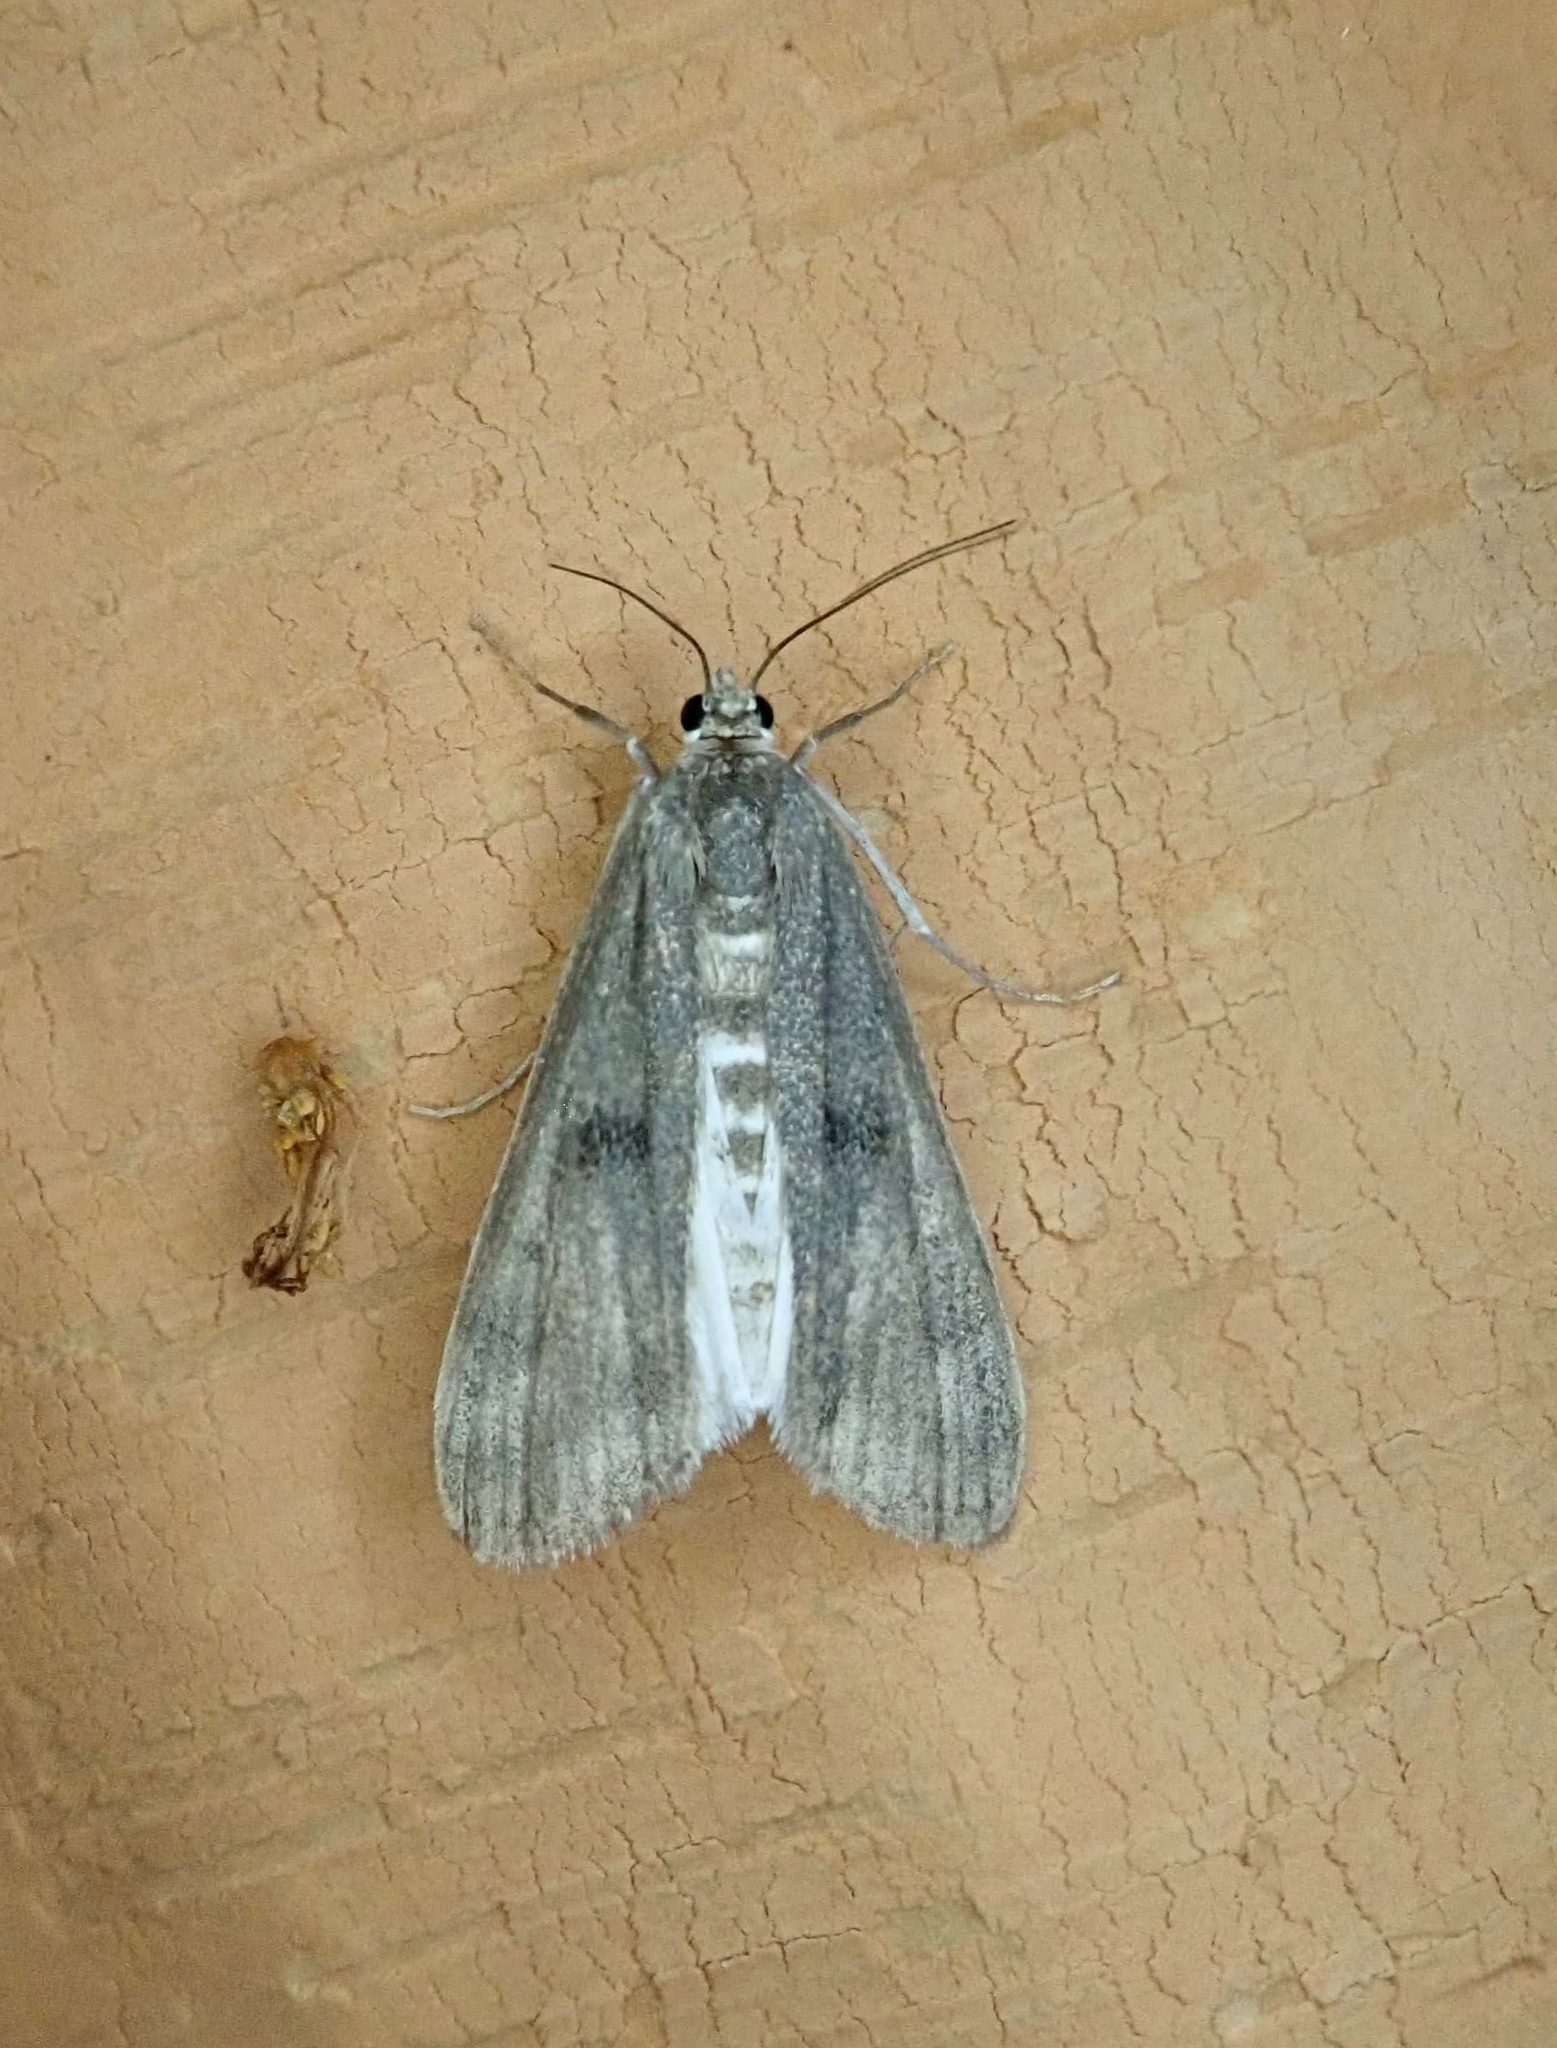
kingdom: Animalia
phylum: Arthropoda
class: Insecta
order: Lepidoptera
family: Crambidae
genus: Parapoynx
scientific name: Parapoynx maculalis
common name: Polymorphic pondweed moth
